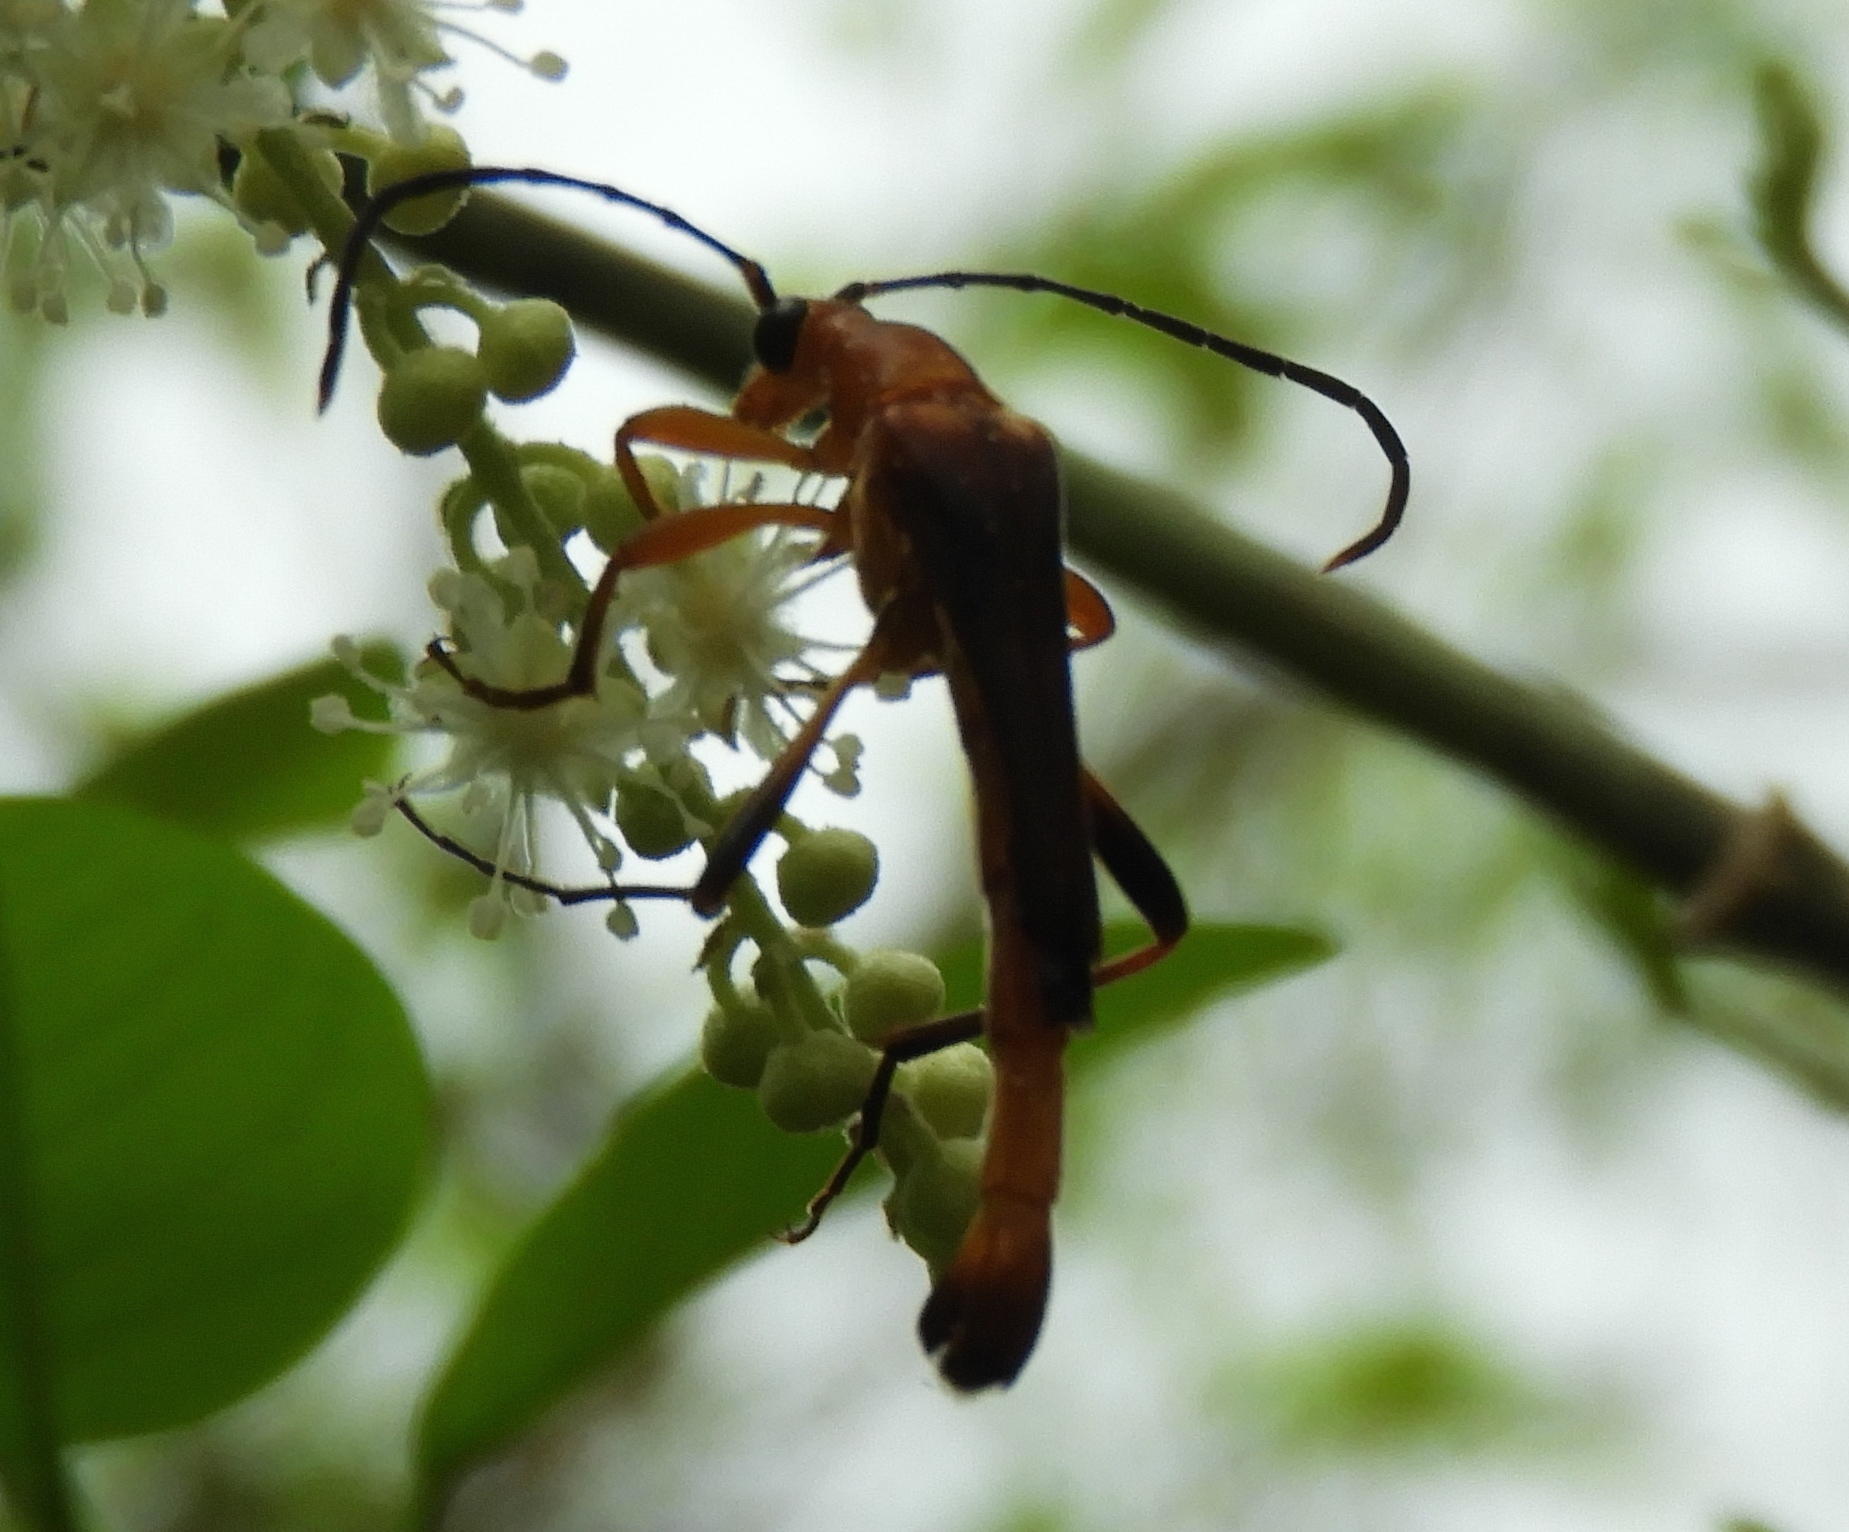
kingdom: Animalia
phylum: Arthropoda
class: Insecta
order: Coleoptera
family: Cerambycidae
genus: Strangalia
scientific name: Strangalia bicolorella
